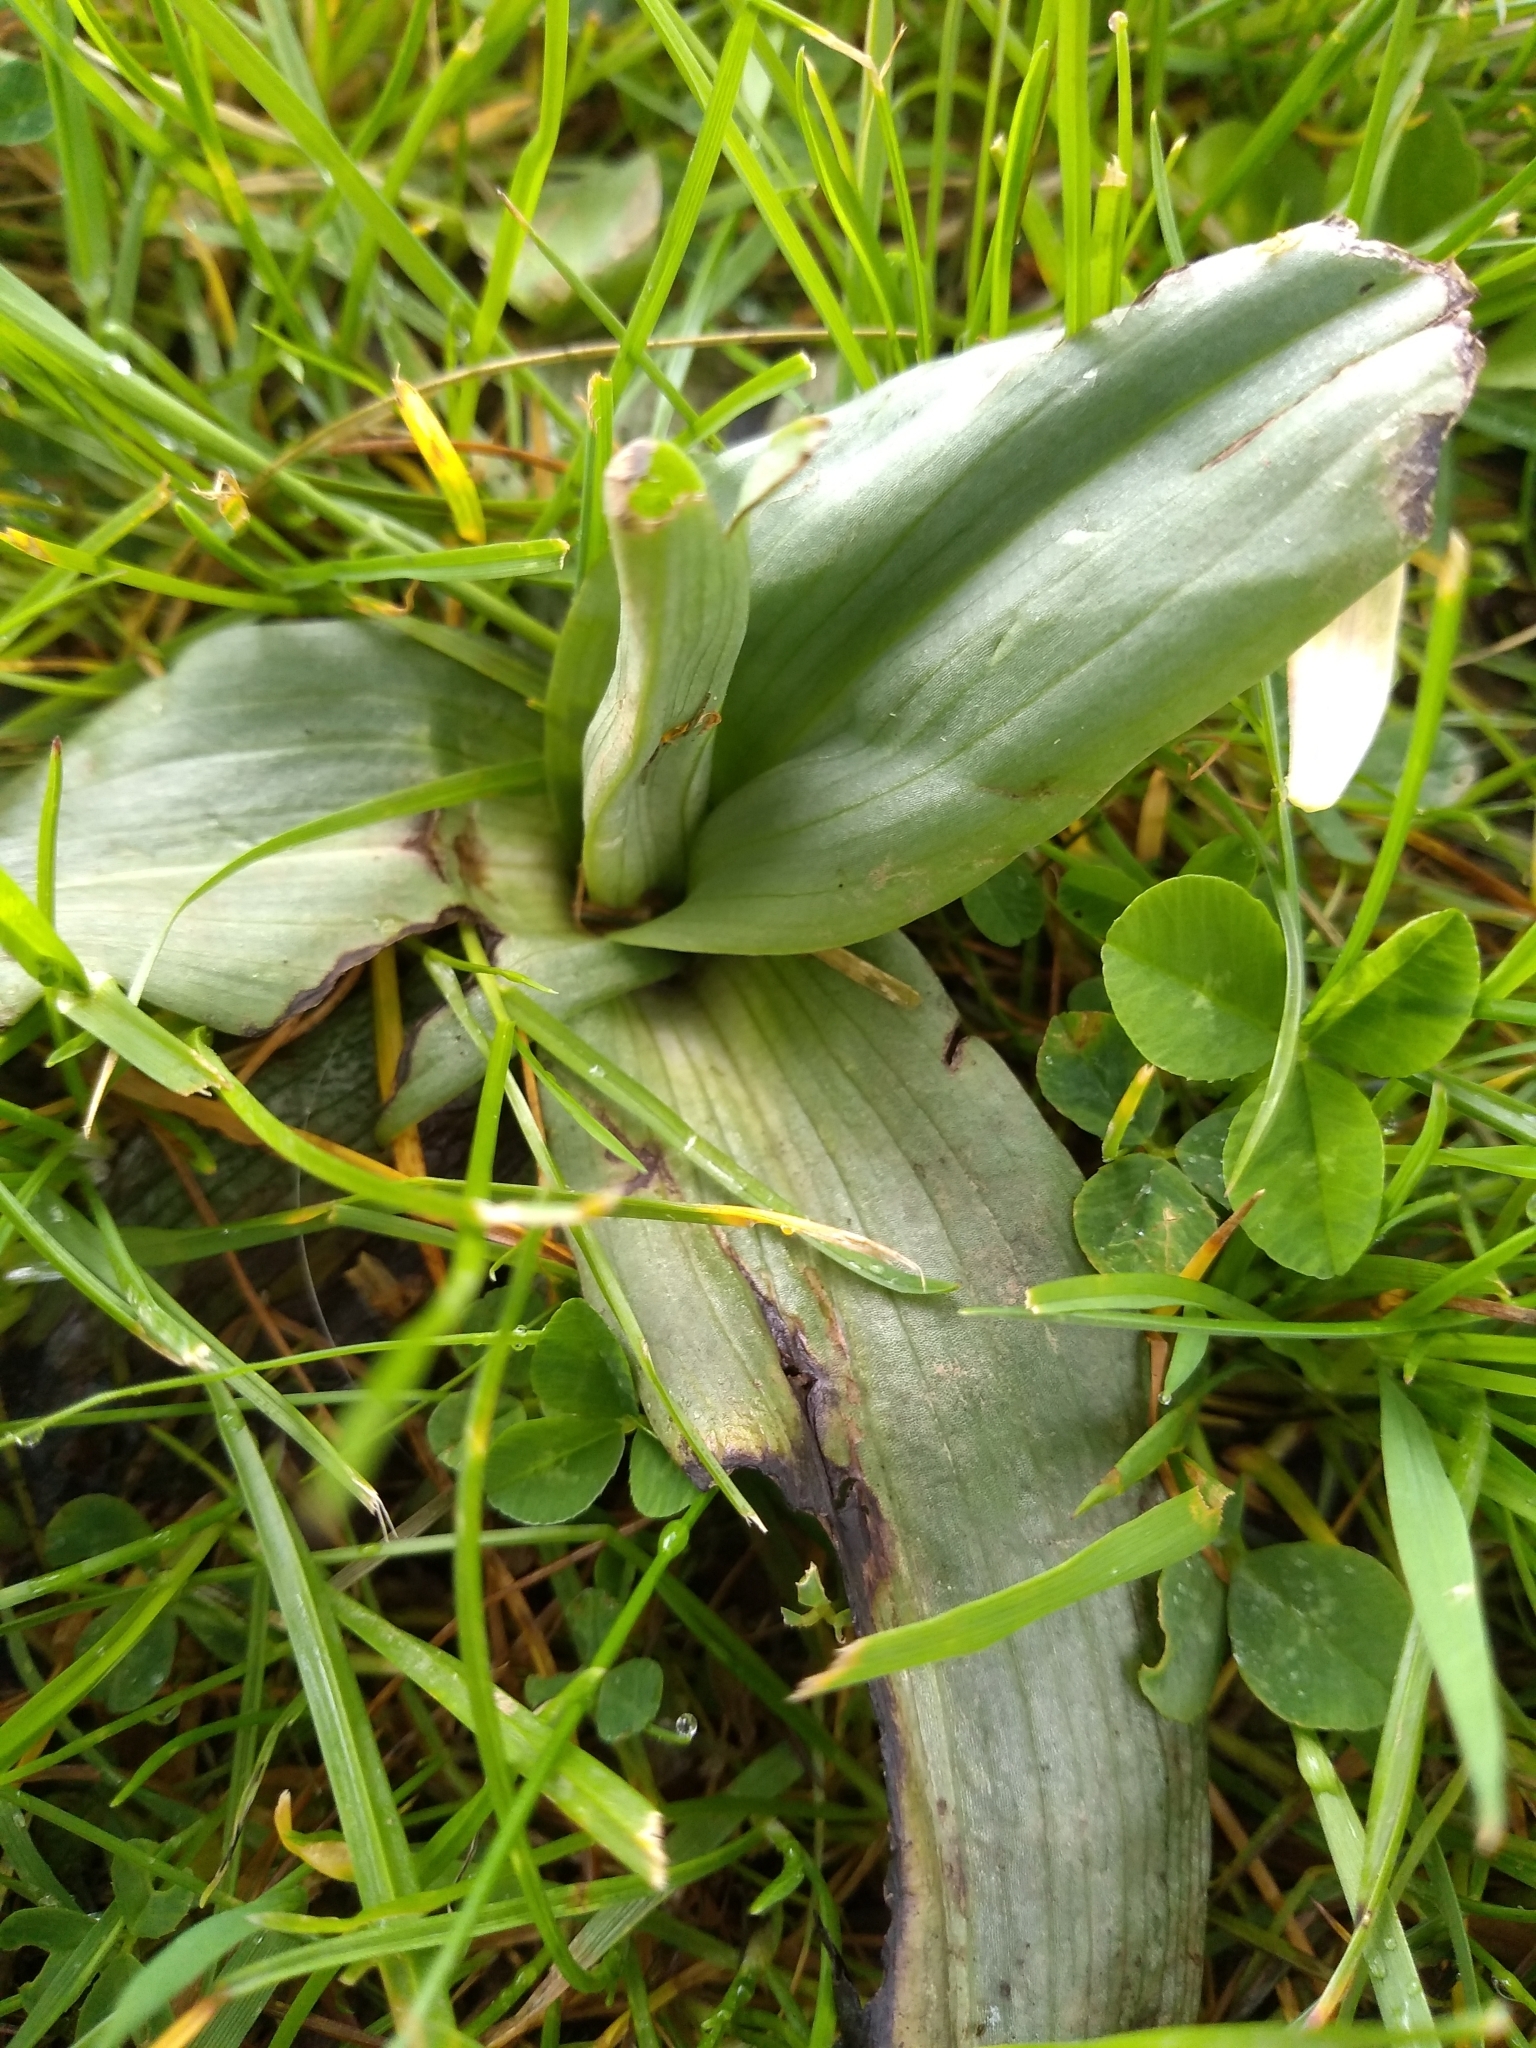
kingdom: Plantae
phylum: Tracheophyta
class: Liliopsida
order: Asparagales
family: Orchidaceae
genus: Ophrys
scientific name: Ophrys apifera
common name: Bee orchid
